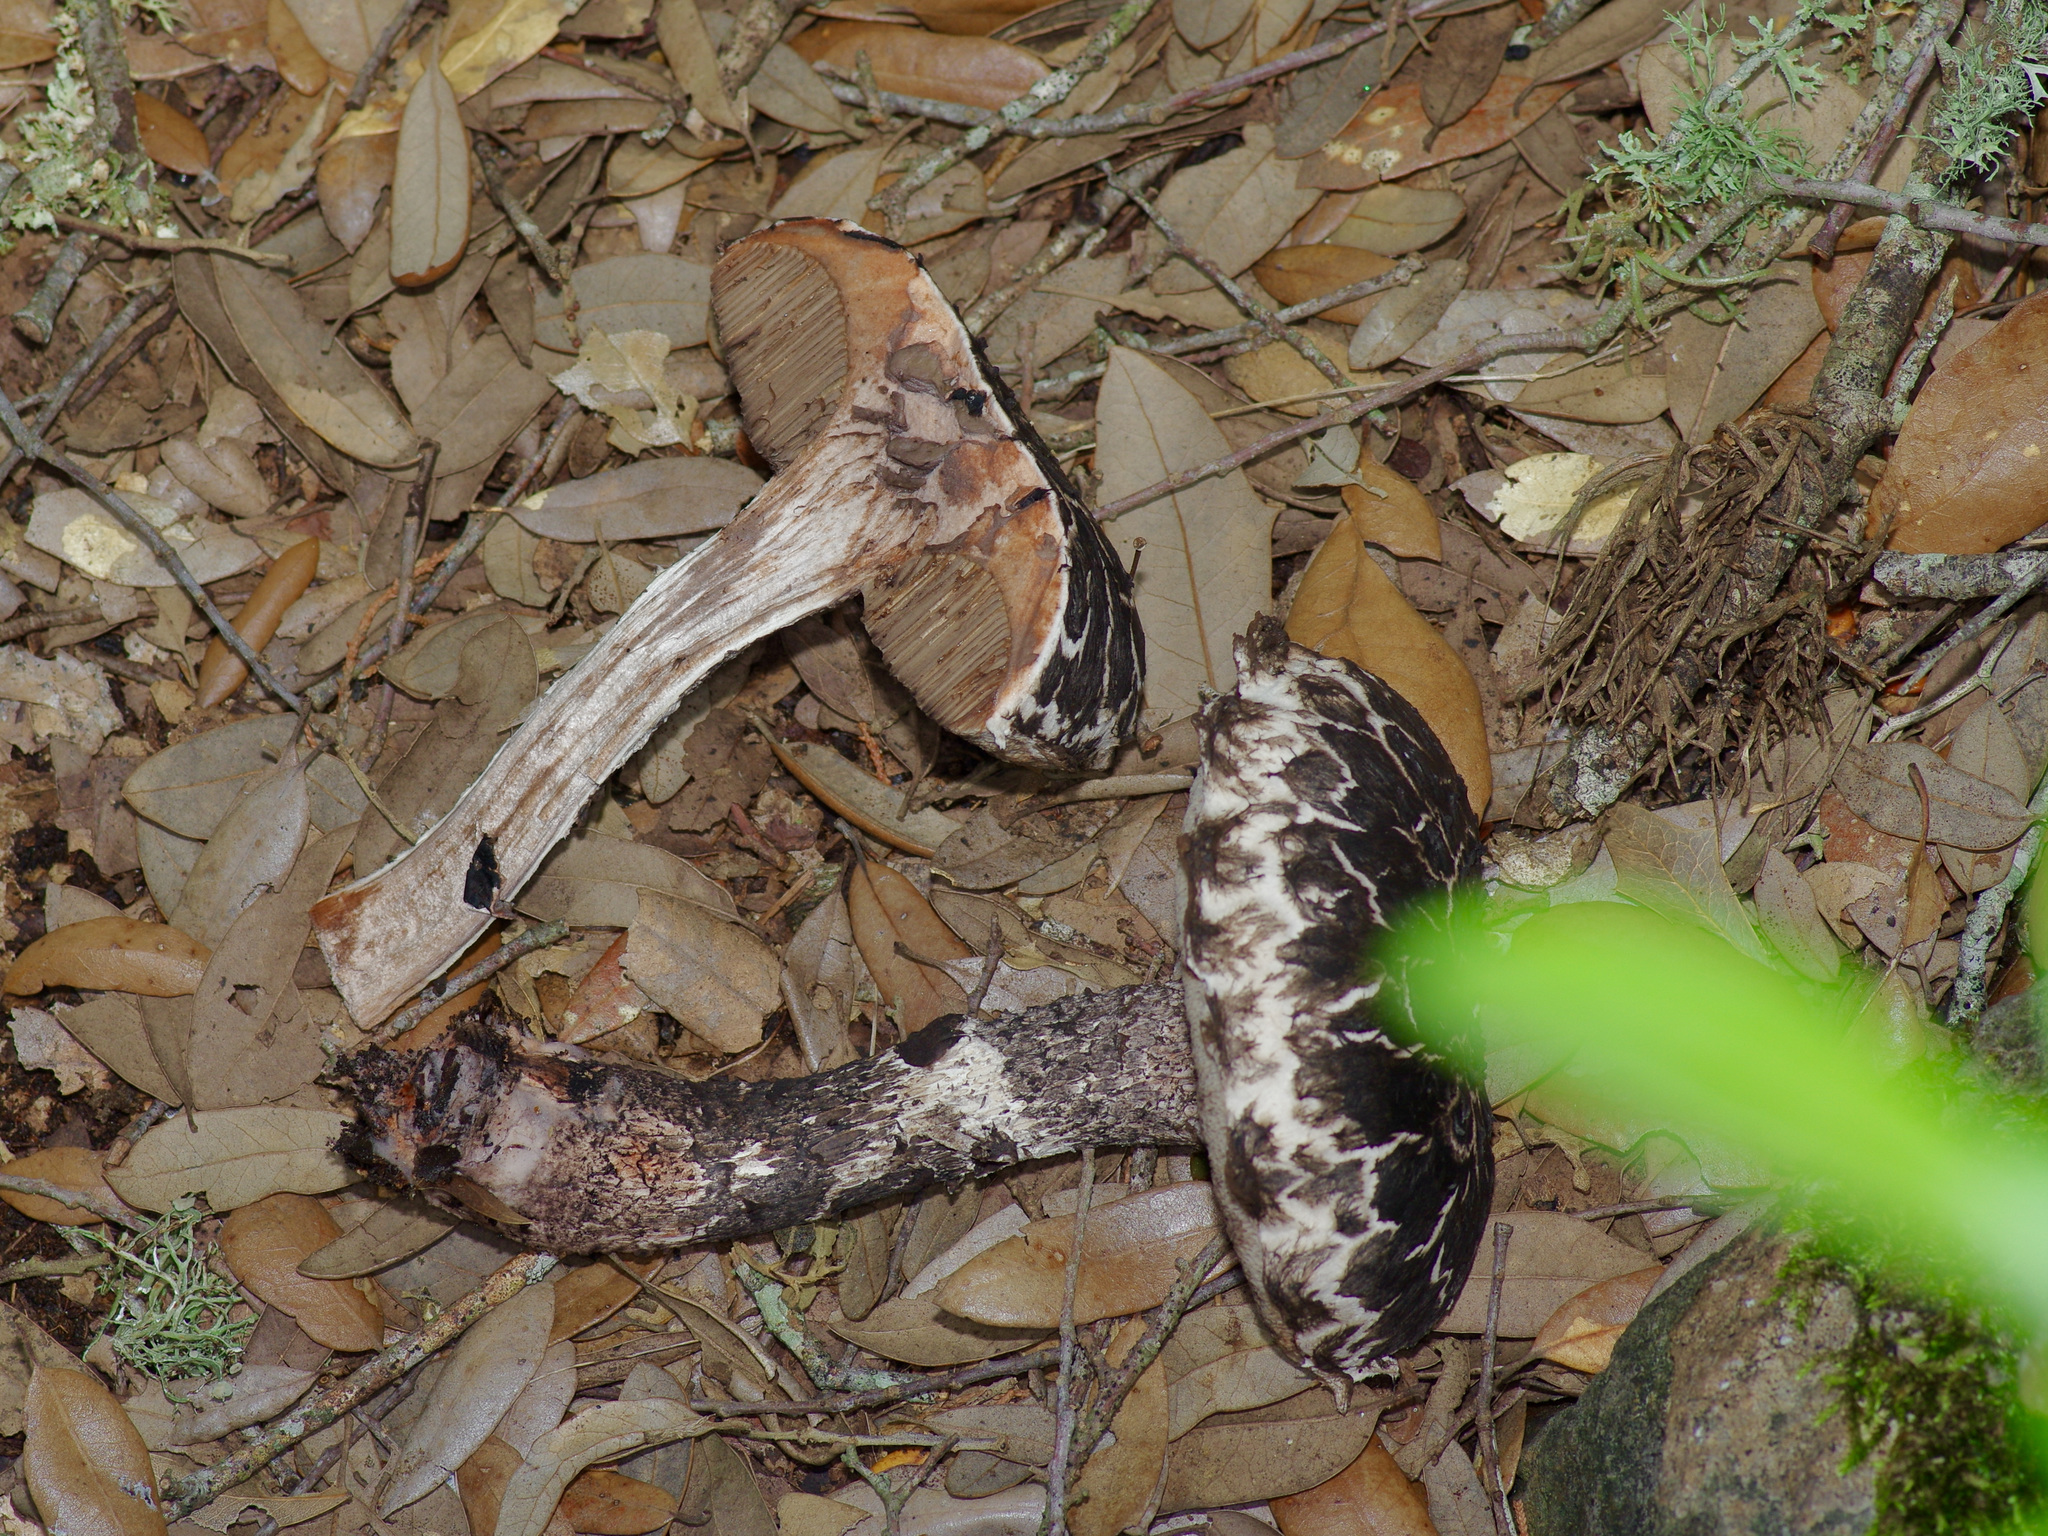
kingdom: Fungi
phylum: Basidiomycota
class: Agaricomycetes
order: Boletales
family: Boletaceae
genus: Strobilomyces
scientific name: Strobilomyces
